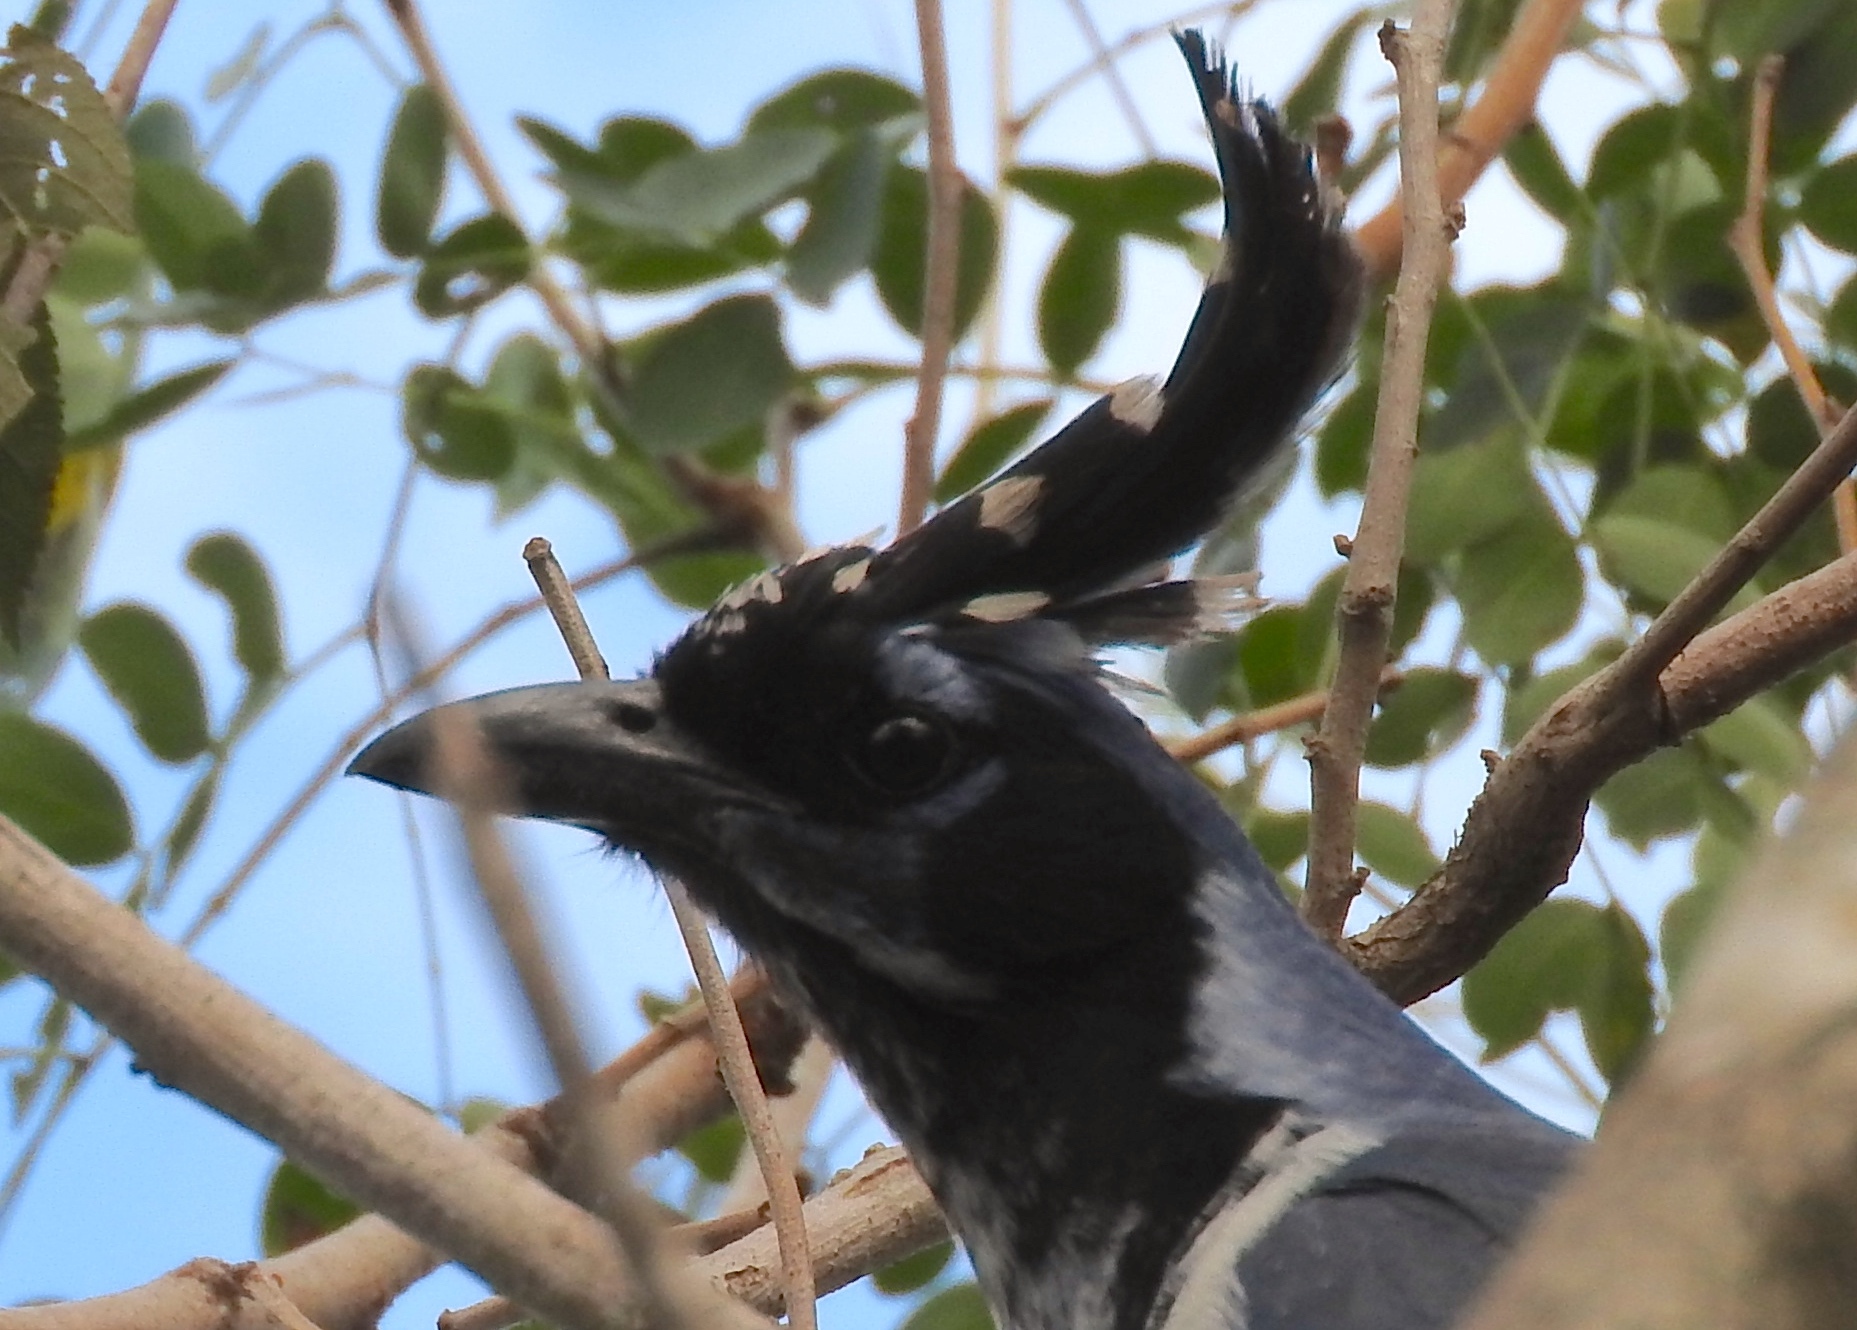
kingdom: Animalia
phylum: Chordata
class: Aves
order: Passeriformes
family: Corvidae
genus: Calocitta
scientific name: Calocitta colliei
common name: Black-throated magpie-jay
